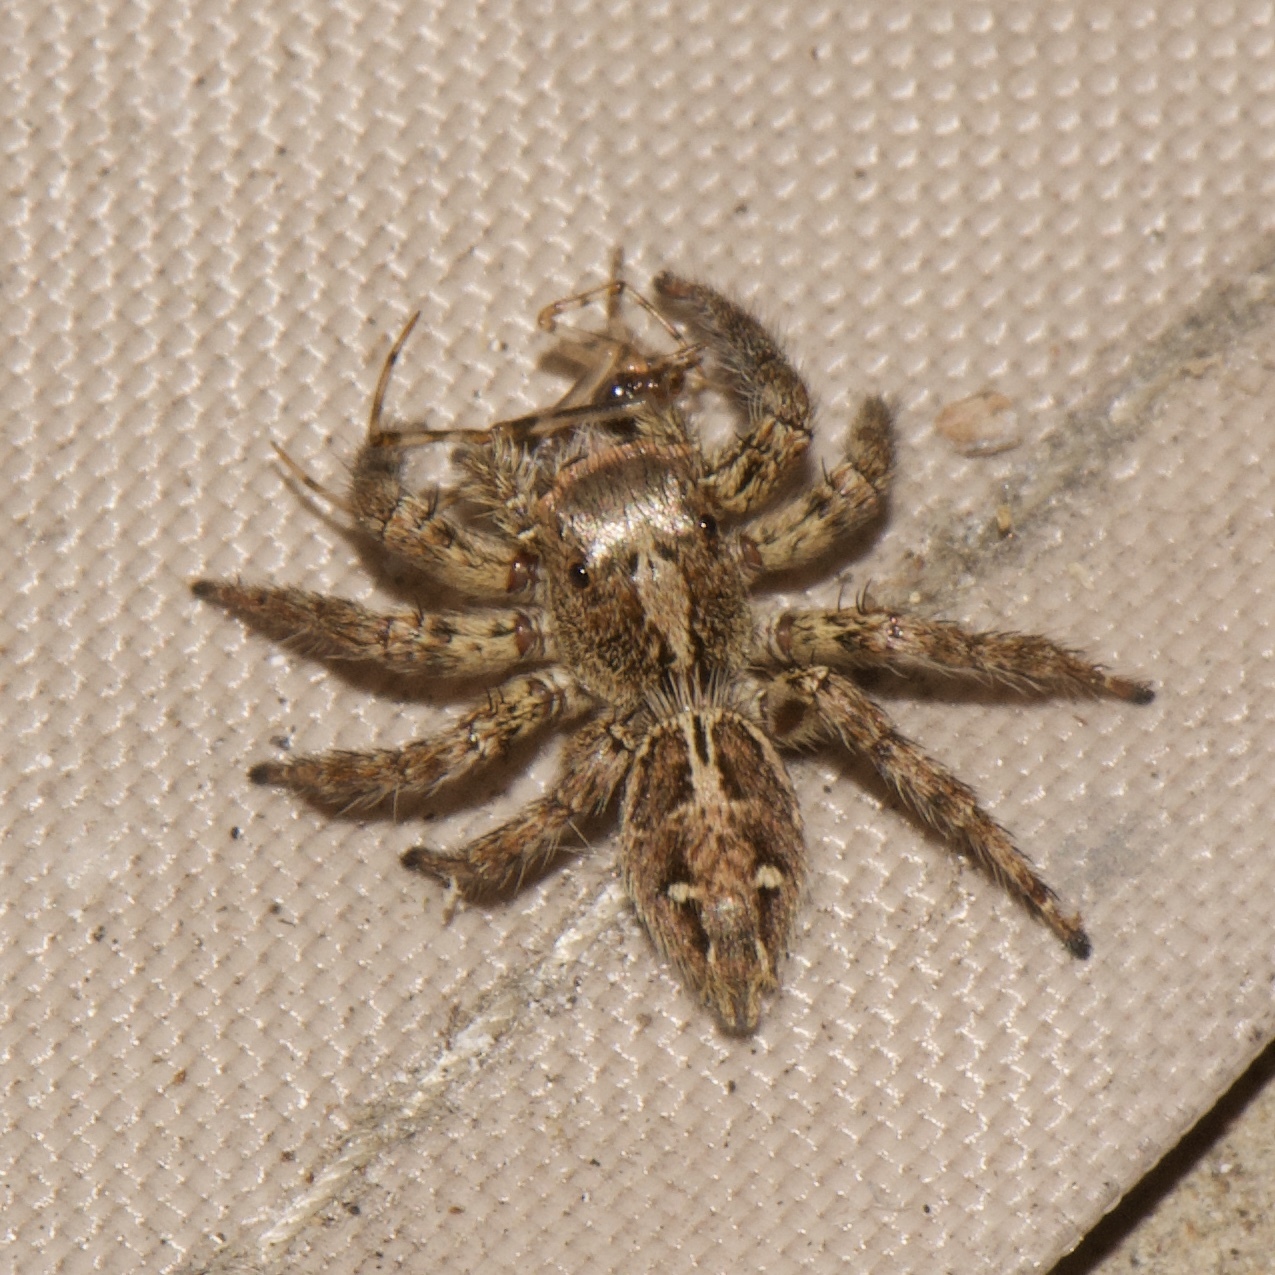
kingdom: Animalia
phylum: Arthropoda
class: Arachnida
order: Araneae
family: Salticidae
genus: Plexippus
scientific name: Plexippus paykulli
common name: Pantropical jumper
